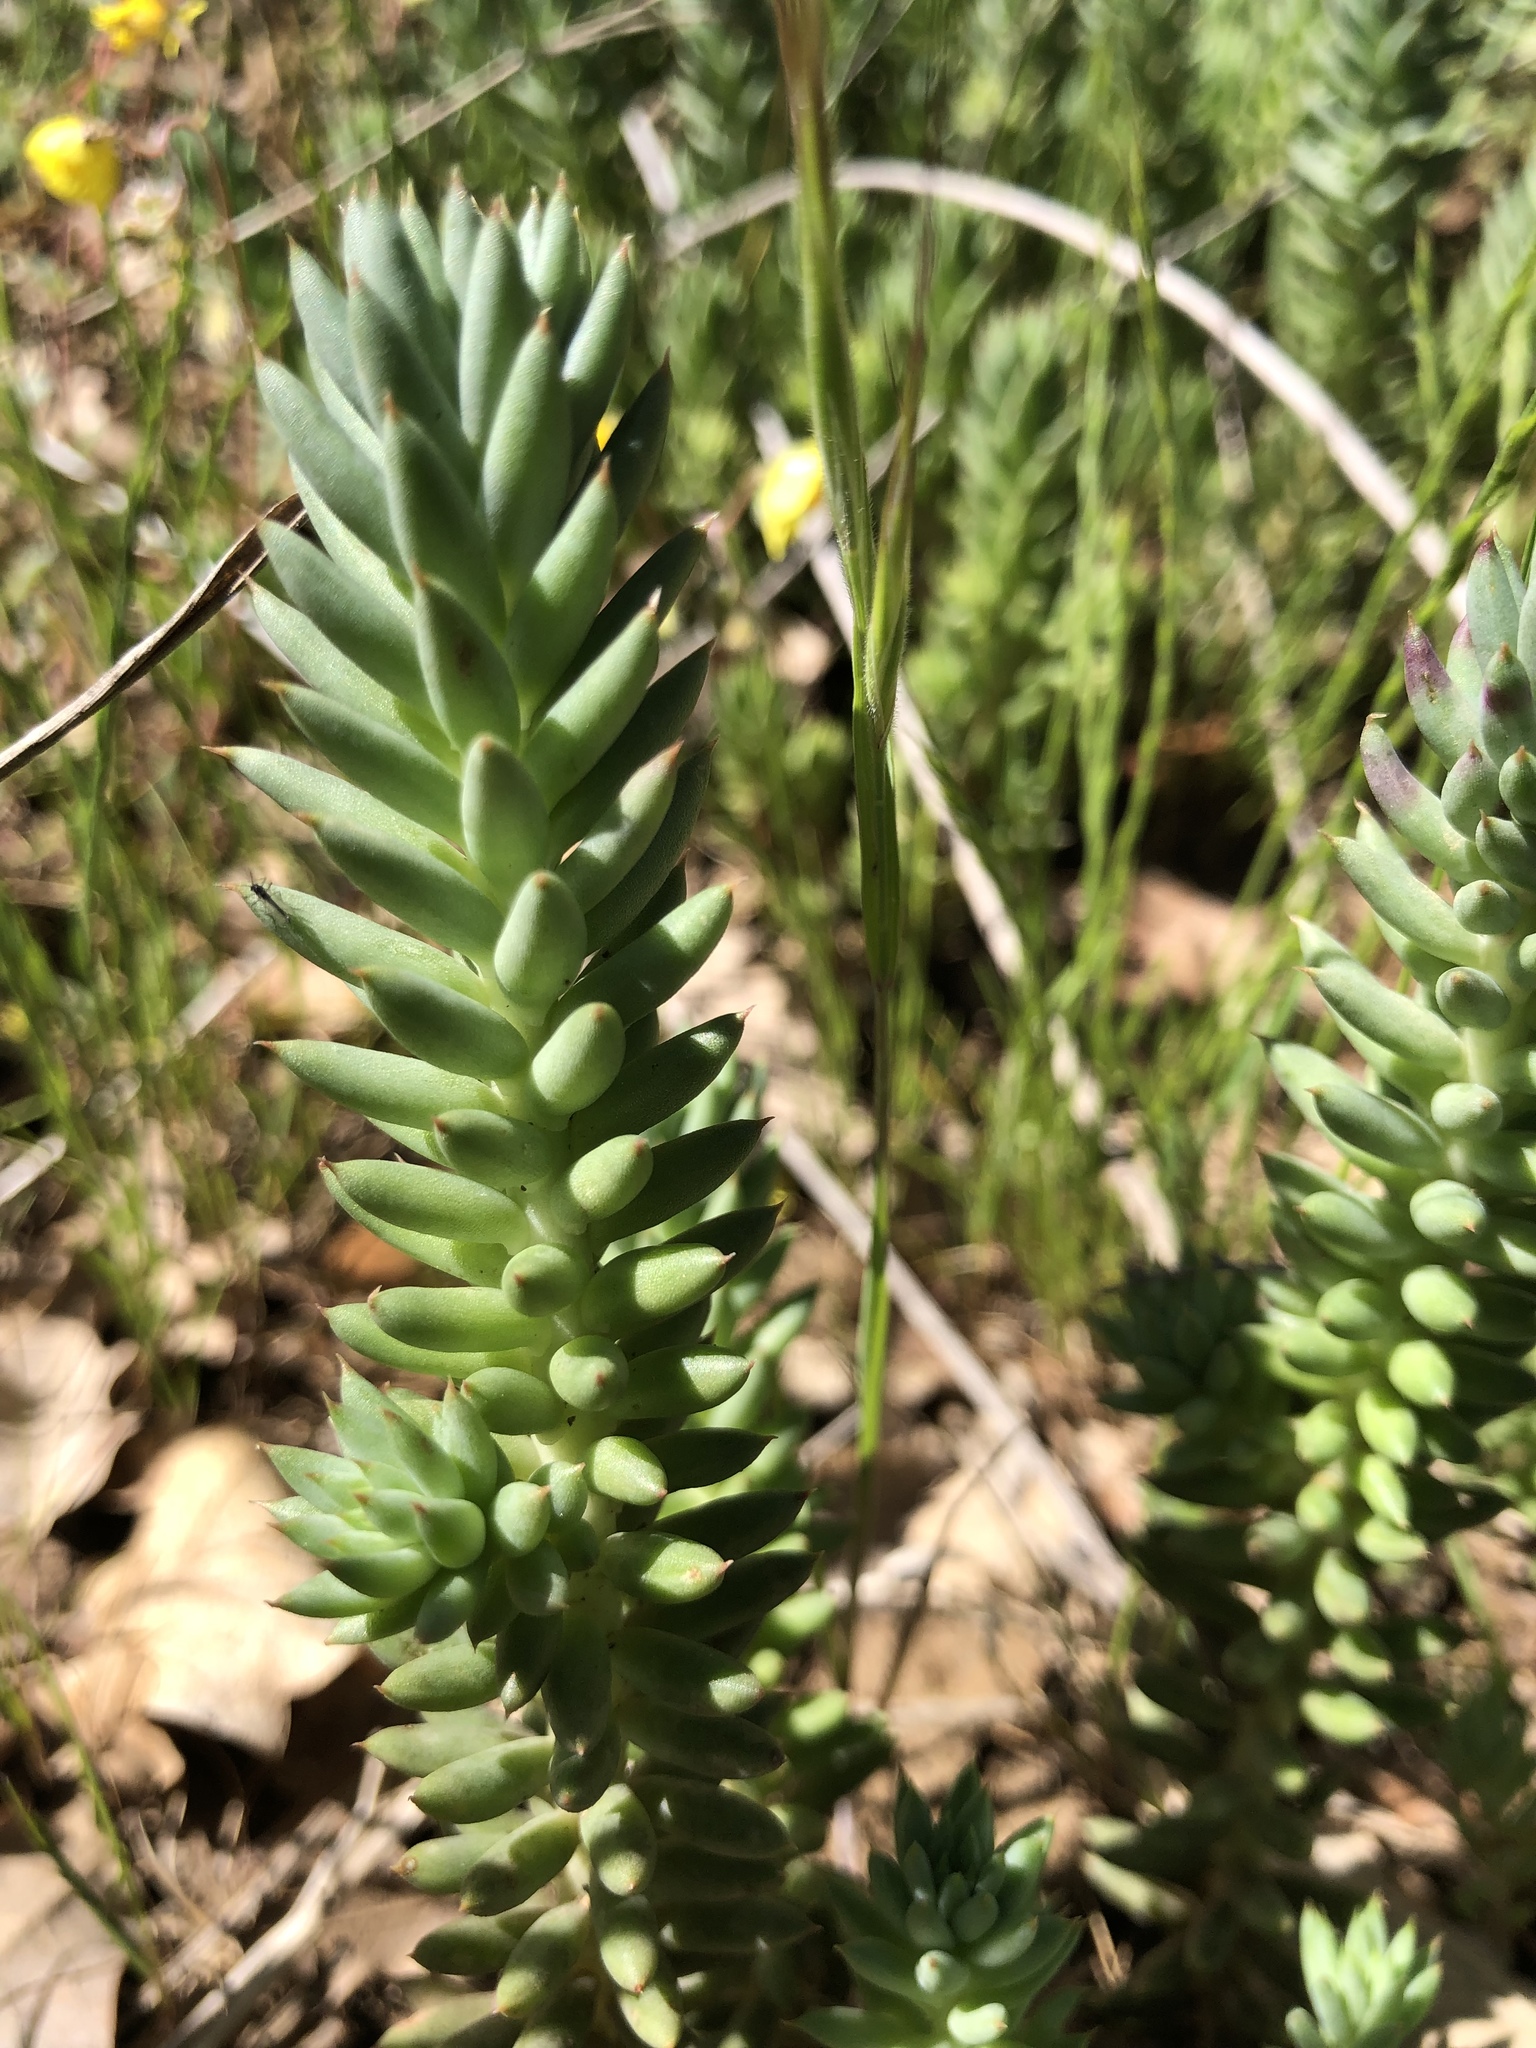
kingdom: Plantae
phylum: Tracheophyta
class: Magnoliopsida
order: Saxifragales
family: Crassulaceae
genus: Petrosedum
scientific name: Petrosedum sediforme
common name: Pale stonecrop
